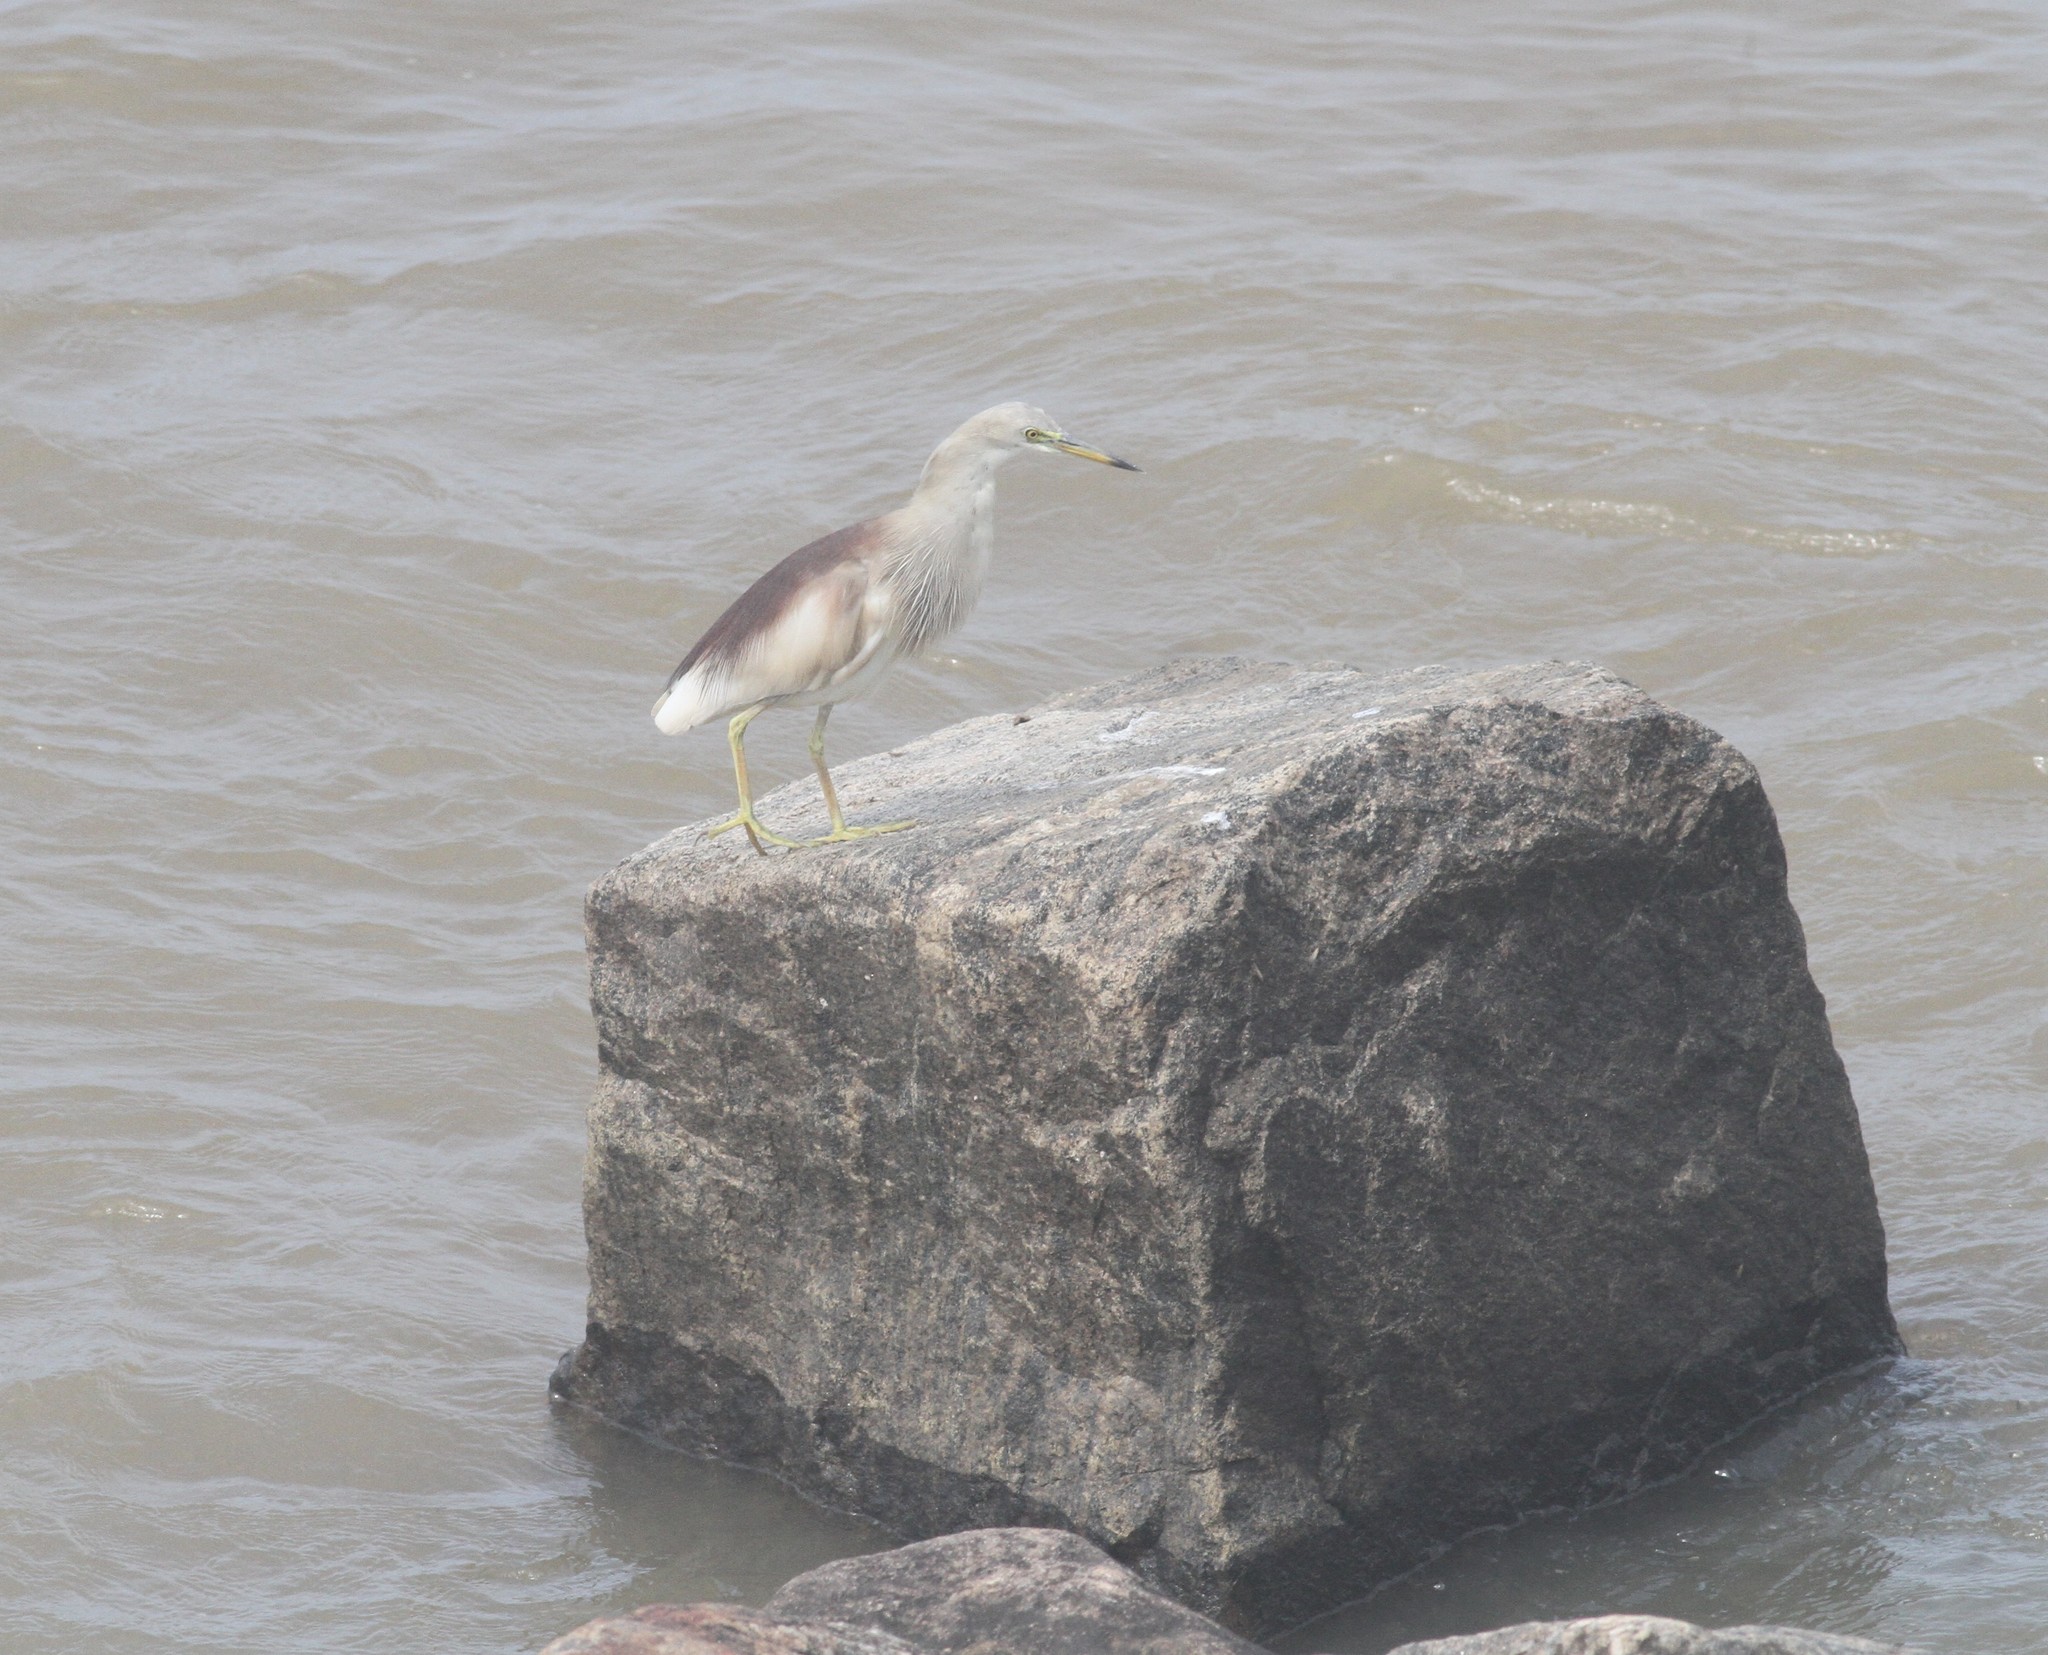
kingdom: Animalia
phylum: Chordata
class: Aves
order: Pelecaniformes
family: Ardeidae
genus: Ardeola
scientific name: Ardeola grayii
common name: Indian pond heron
